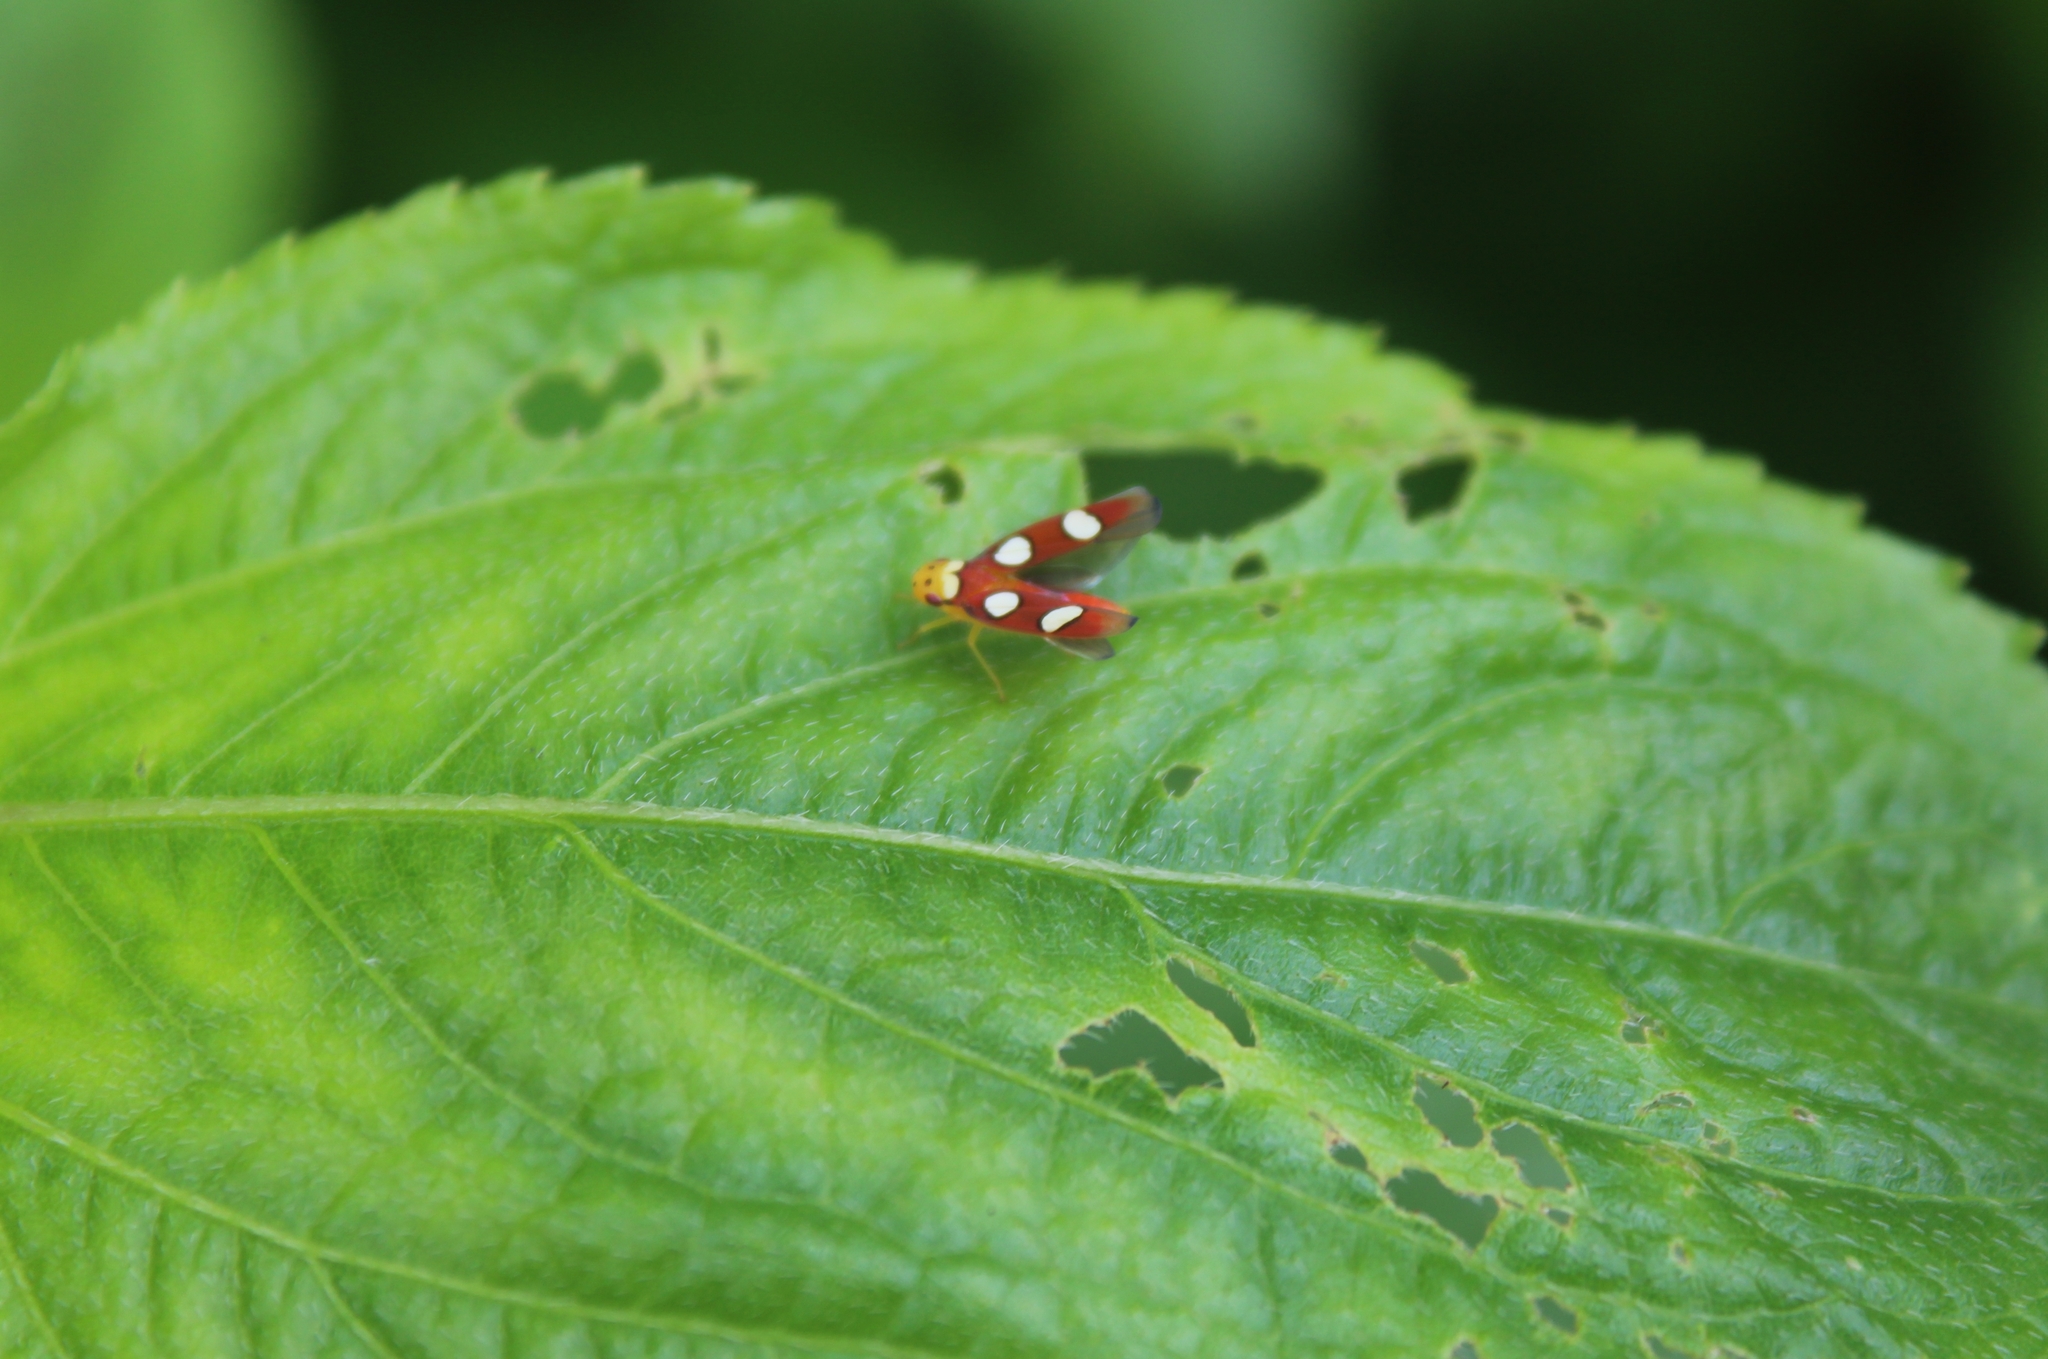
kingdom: Animalia
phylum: Arthropoda
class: Insecta
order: Hemiptera
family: Cicadellidae
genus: Erythrogonia
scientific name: Erythrogonia laudata
